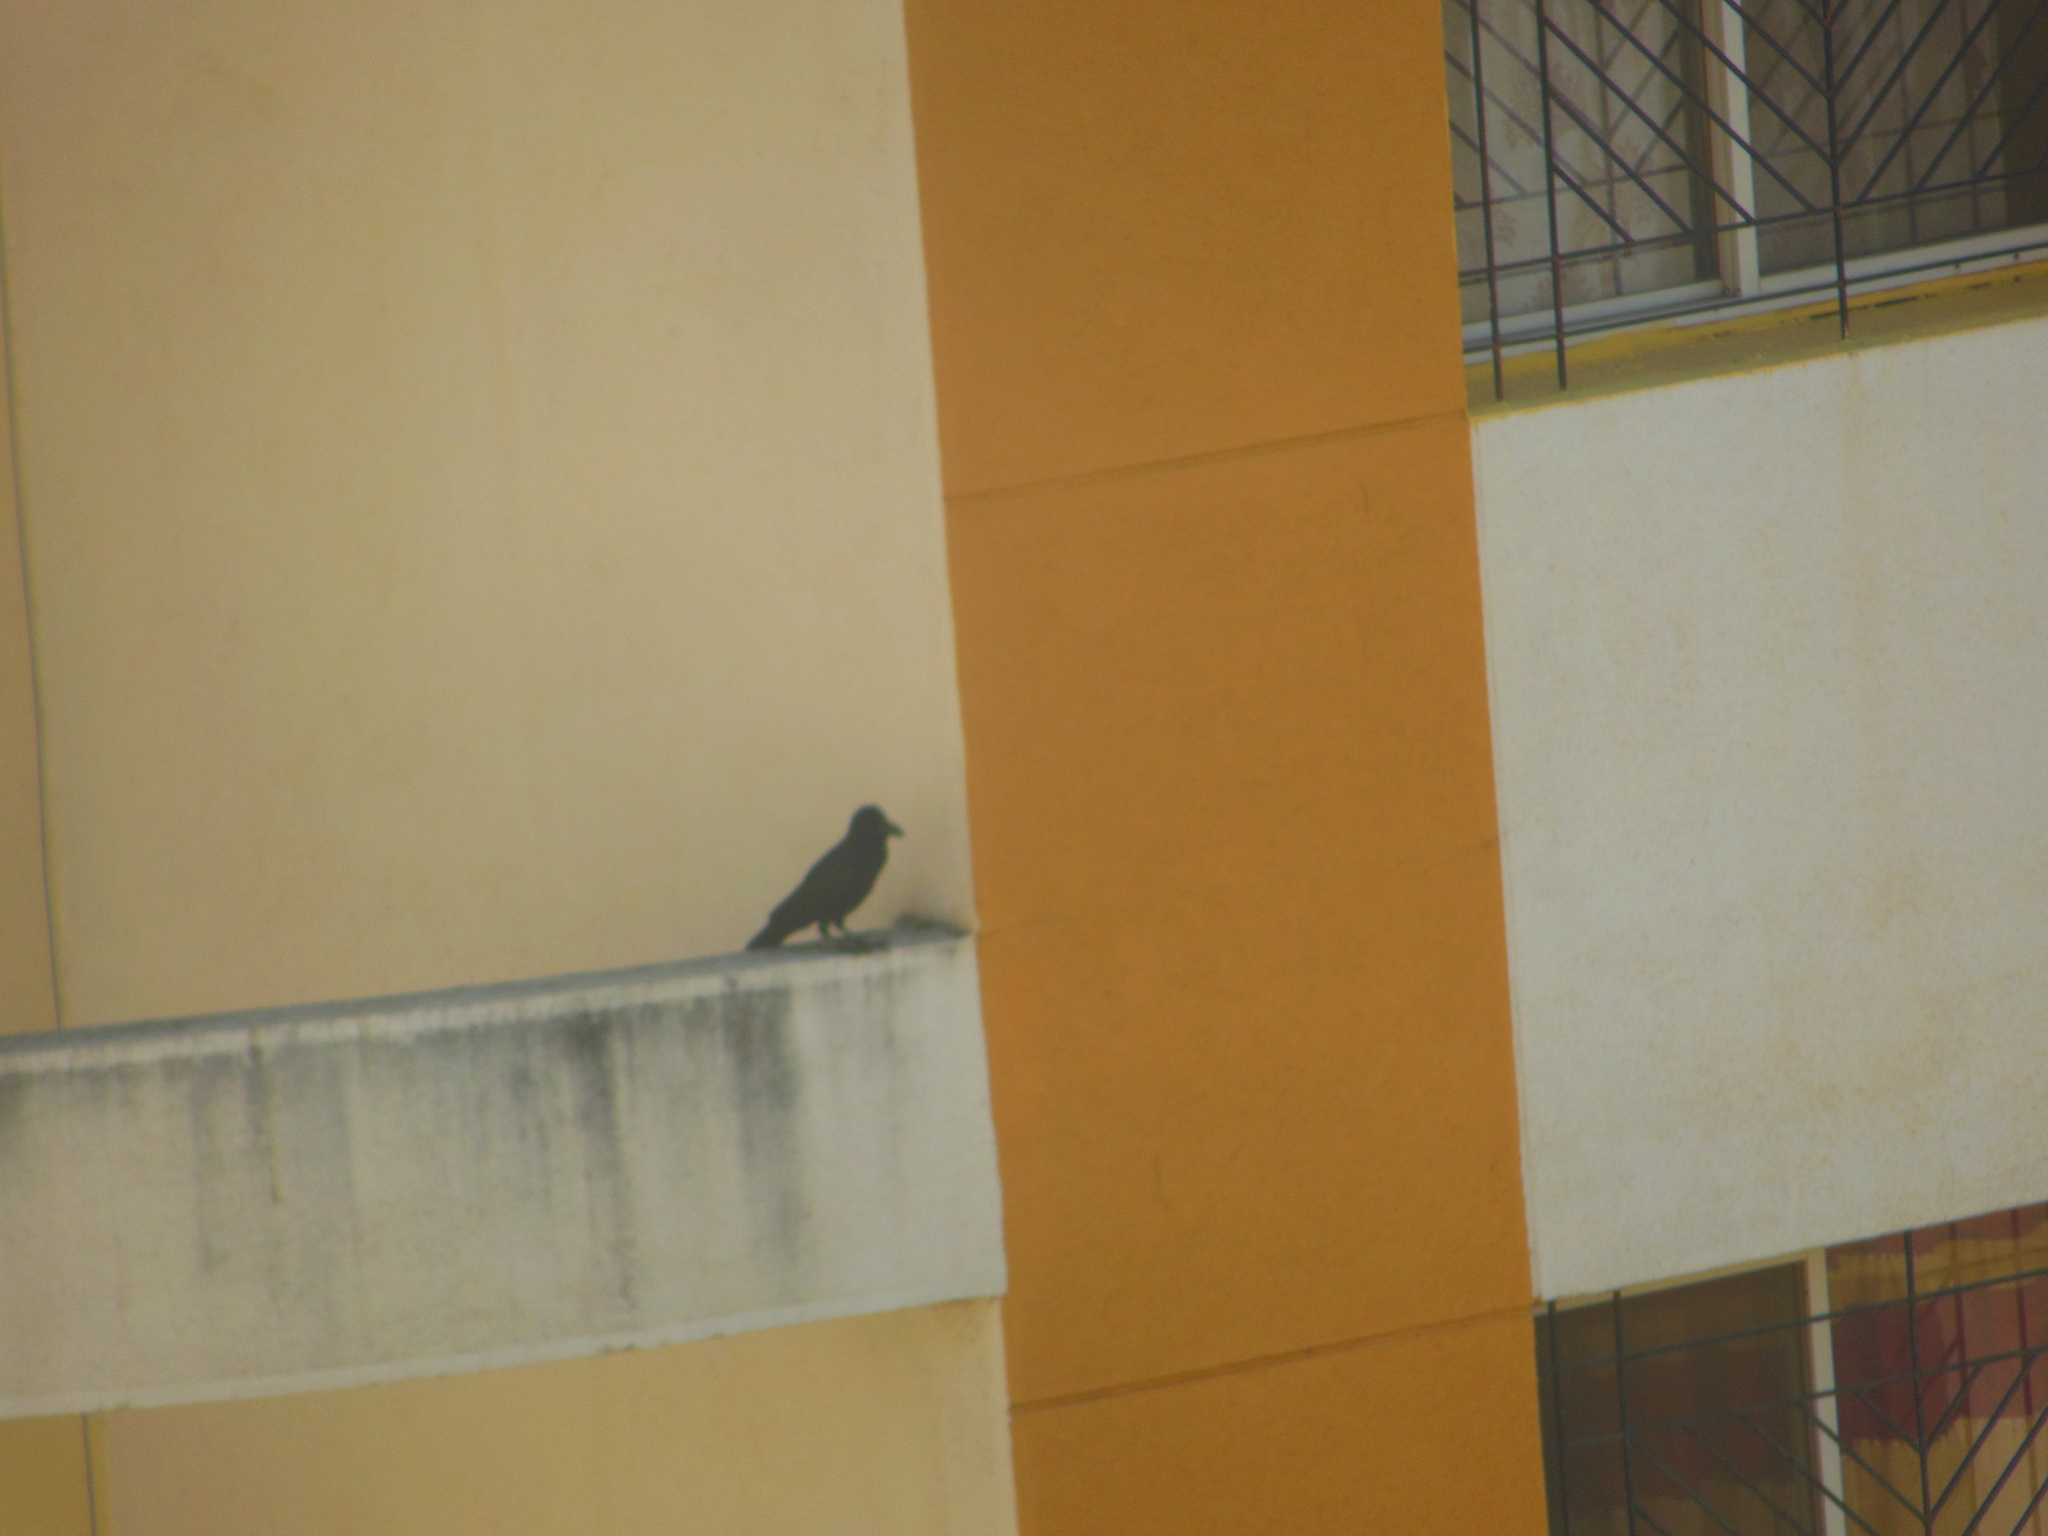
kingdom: Animalia
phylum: Chordata
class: Aves
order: Passeriformes
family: Corvidae
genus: Corvus
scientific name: Corvus macrorhynchos
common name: Large-billed crow
